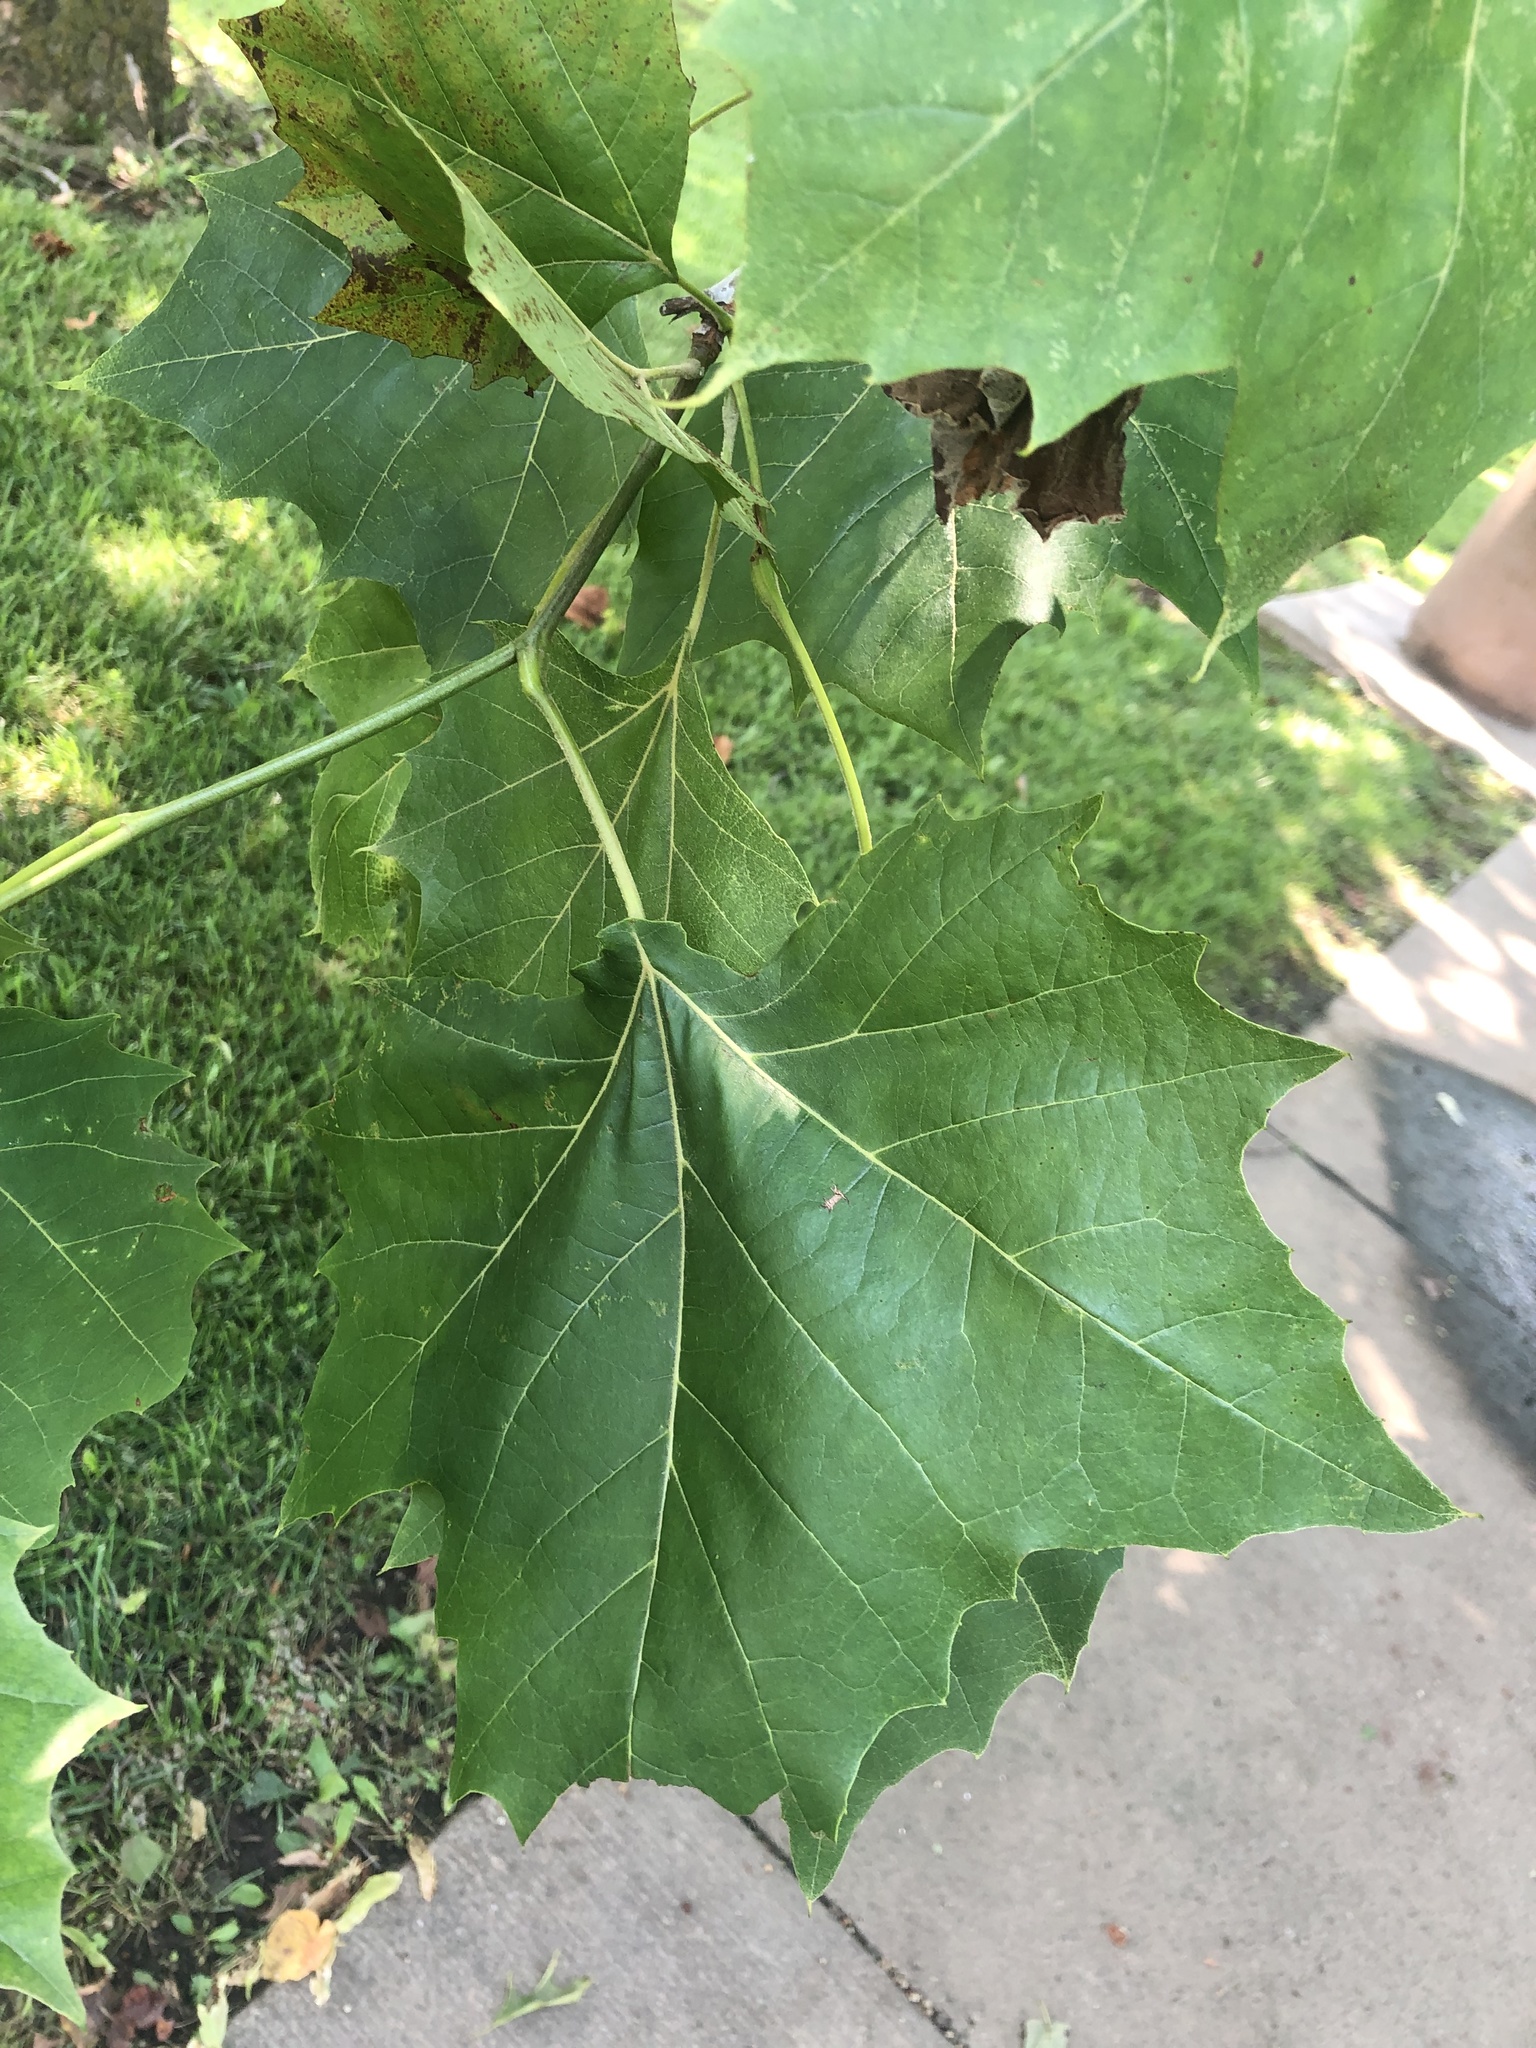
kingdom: Plantae
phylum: Tracheophyta
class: Magnoliopsida
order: Proteales
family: Platanaceae
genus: Platanus
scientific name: Platanus occidentalis
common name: American sycamore
